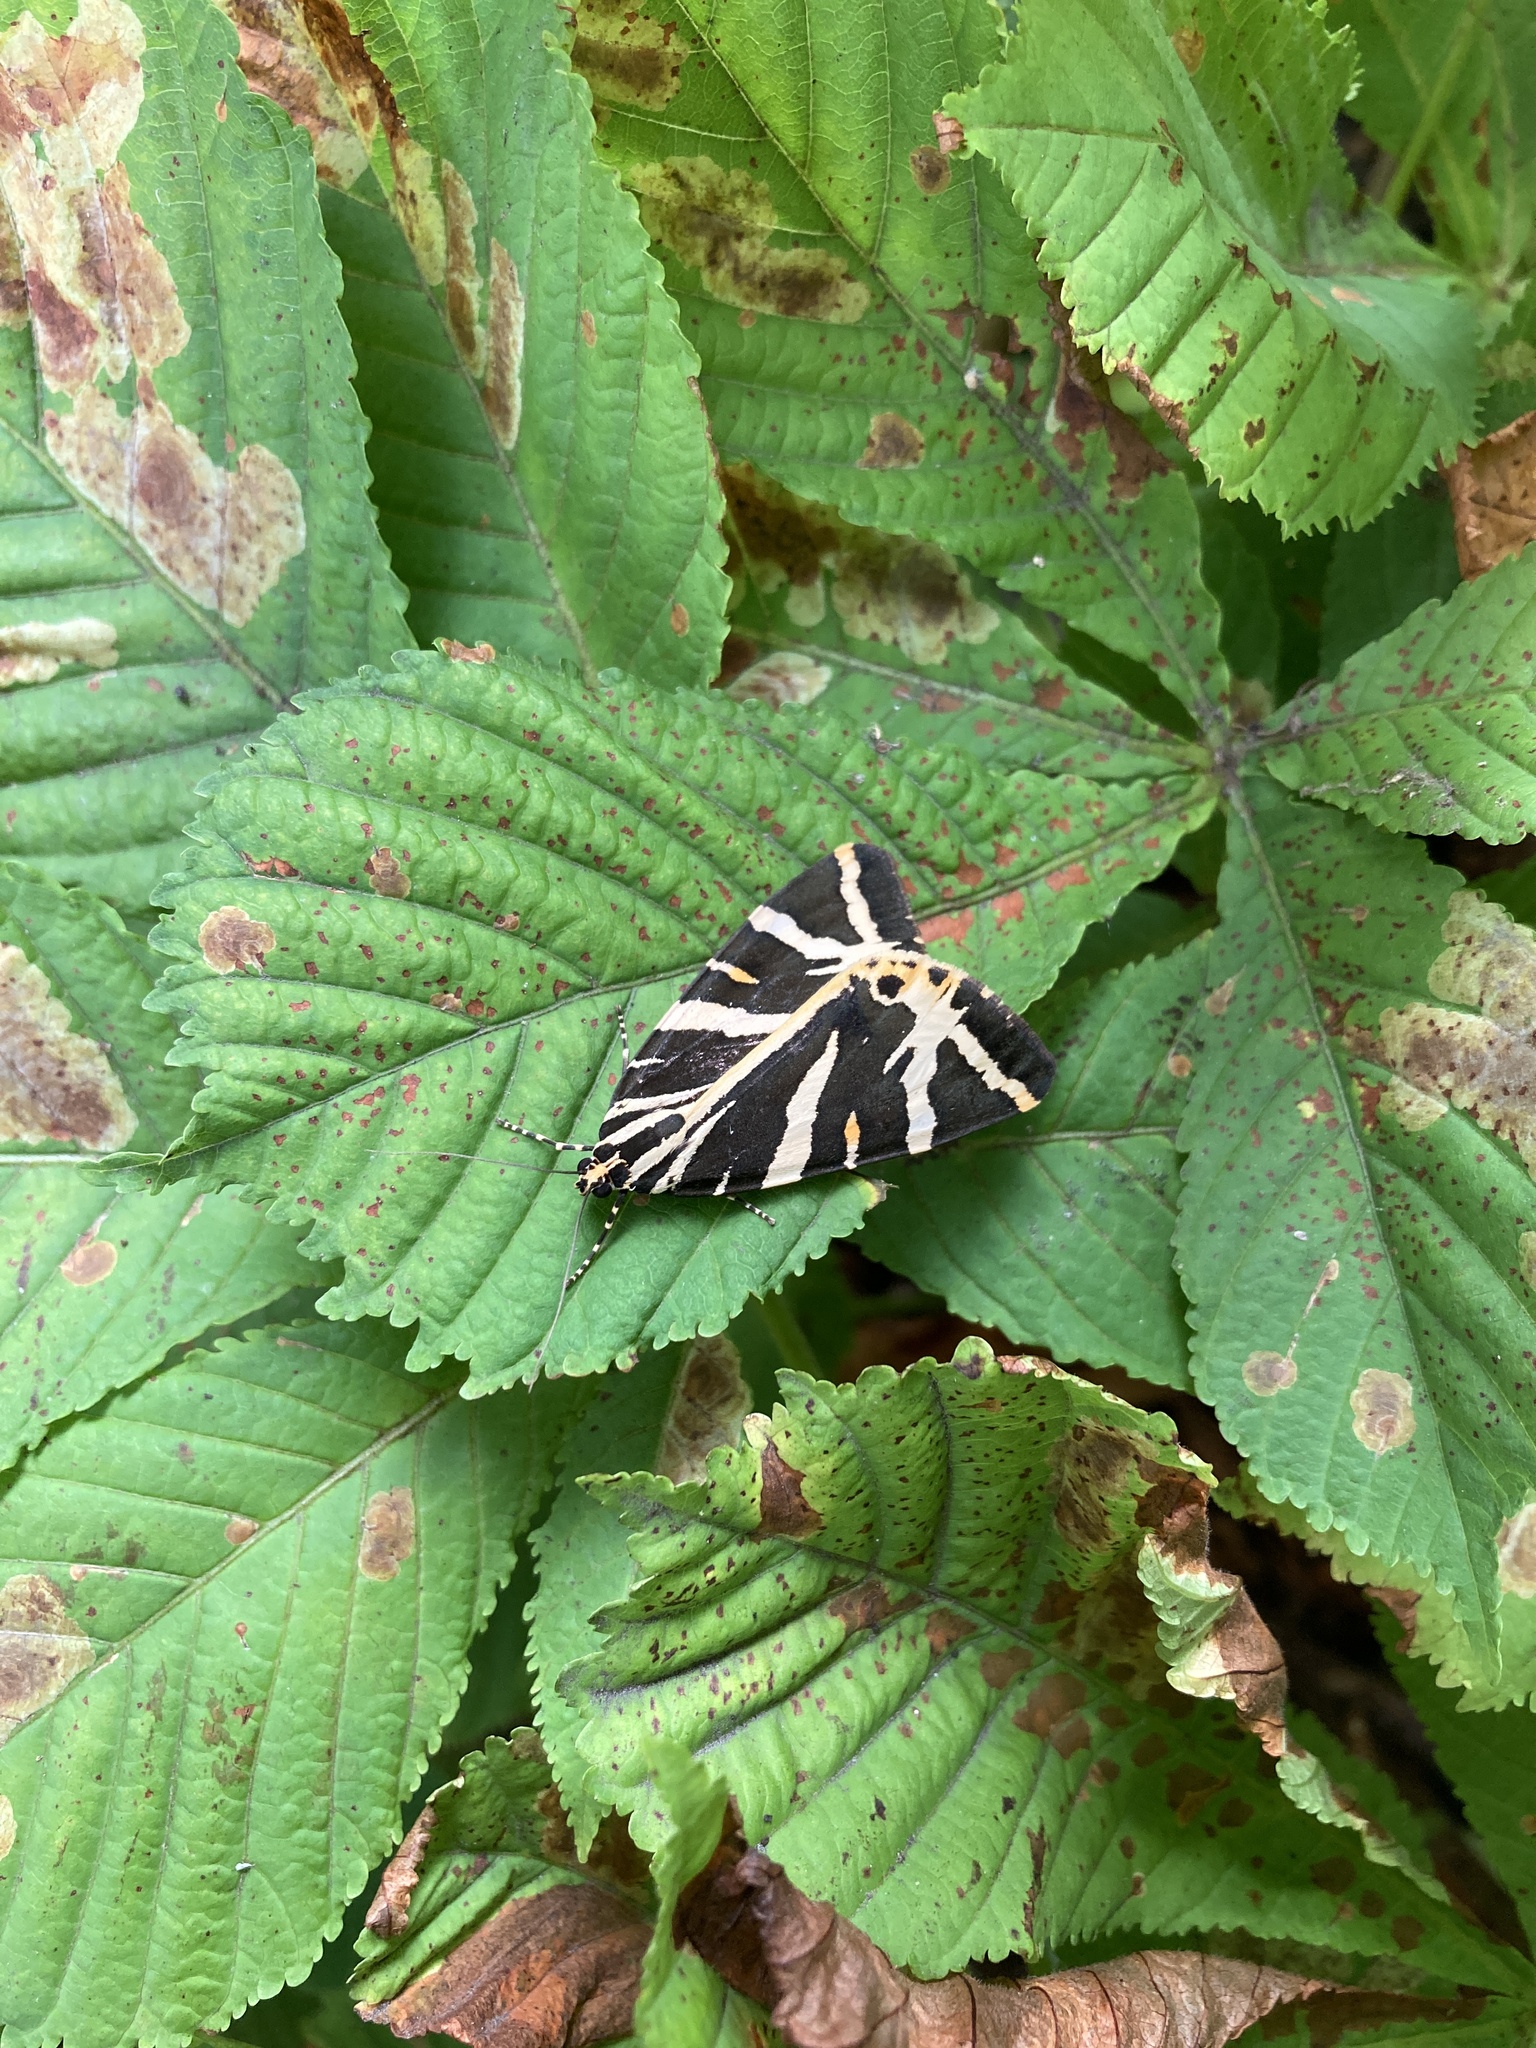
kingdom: Animalia
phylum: Arthropoda
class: Insecta
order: Lepidoptera
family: Erebidae
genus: Euplagia
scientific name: Euplagia quadripunctaria
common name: Jersey tiger
